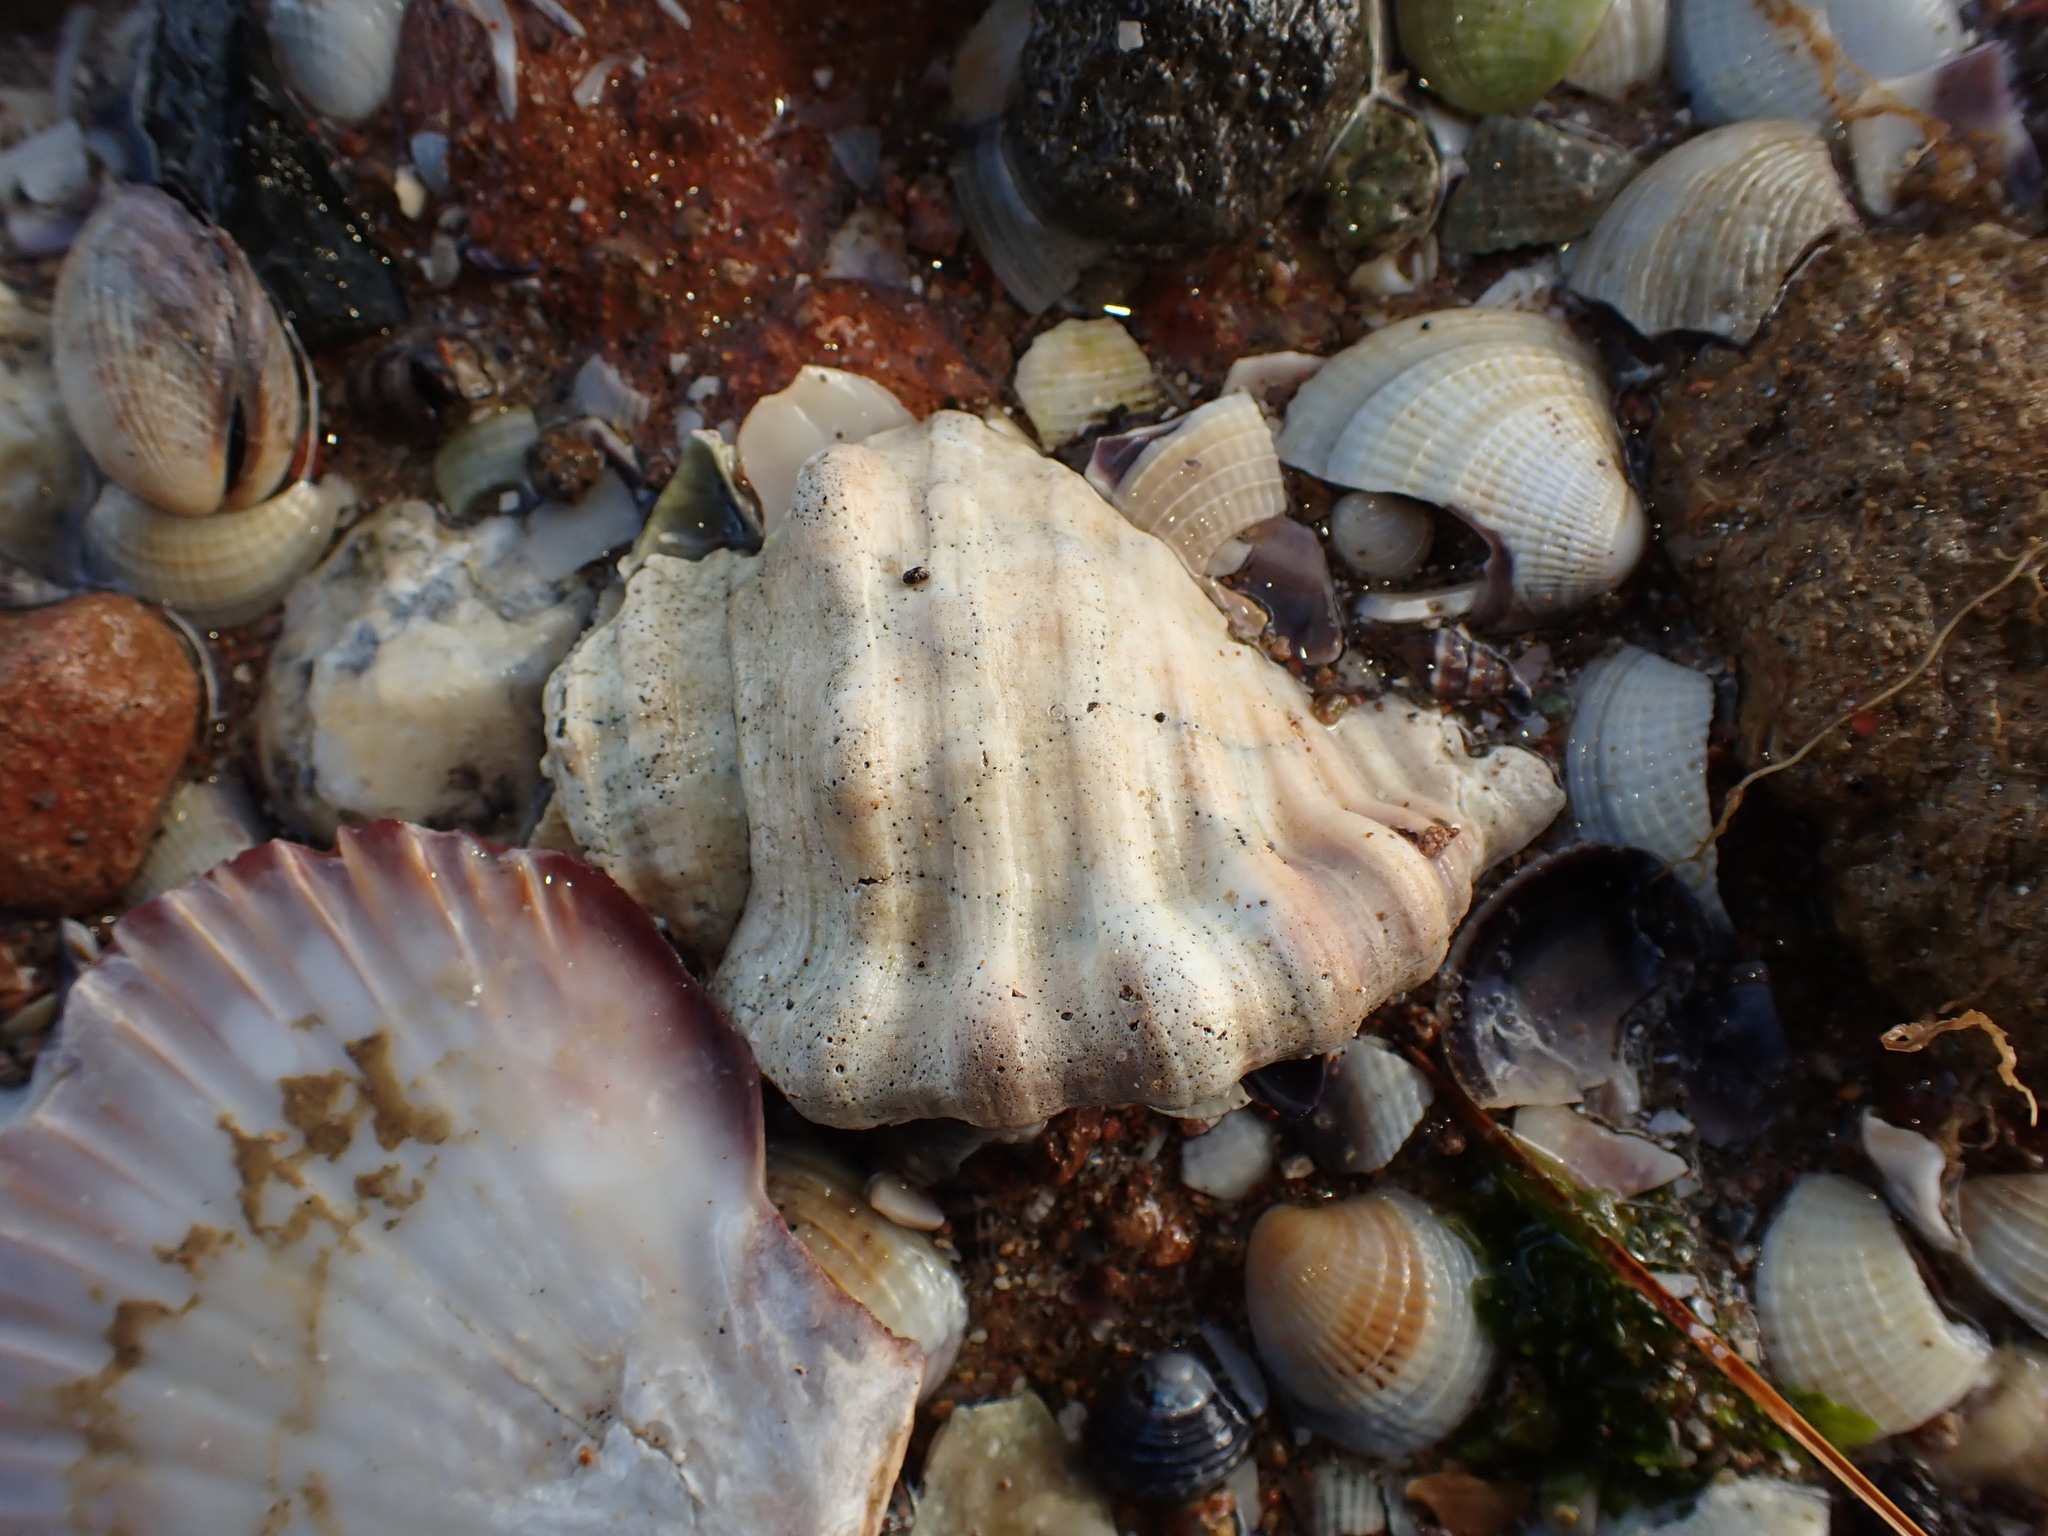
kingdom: Animalia
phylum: Mollusca
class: Gastropoda
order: Littorinimorpha
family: Cymatiidae
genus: Monoplex
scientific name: Monoplex parthenopeus
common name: Giant triton
